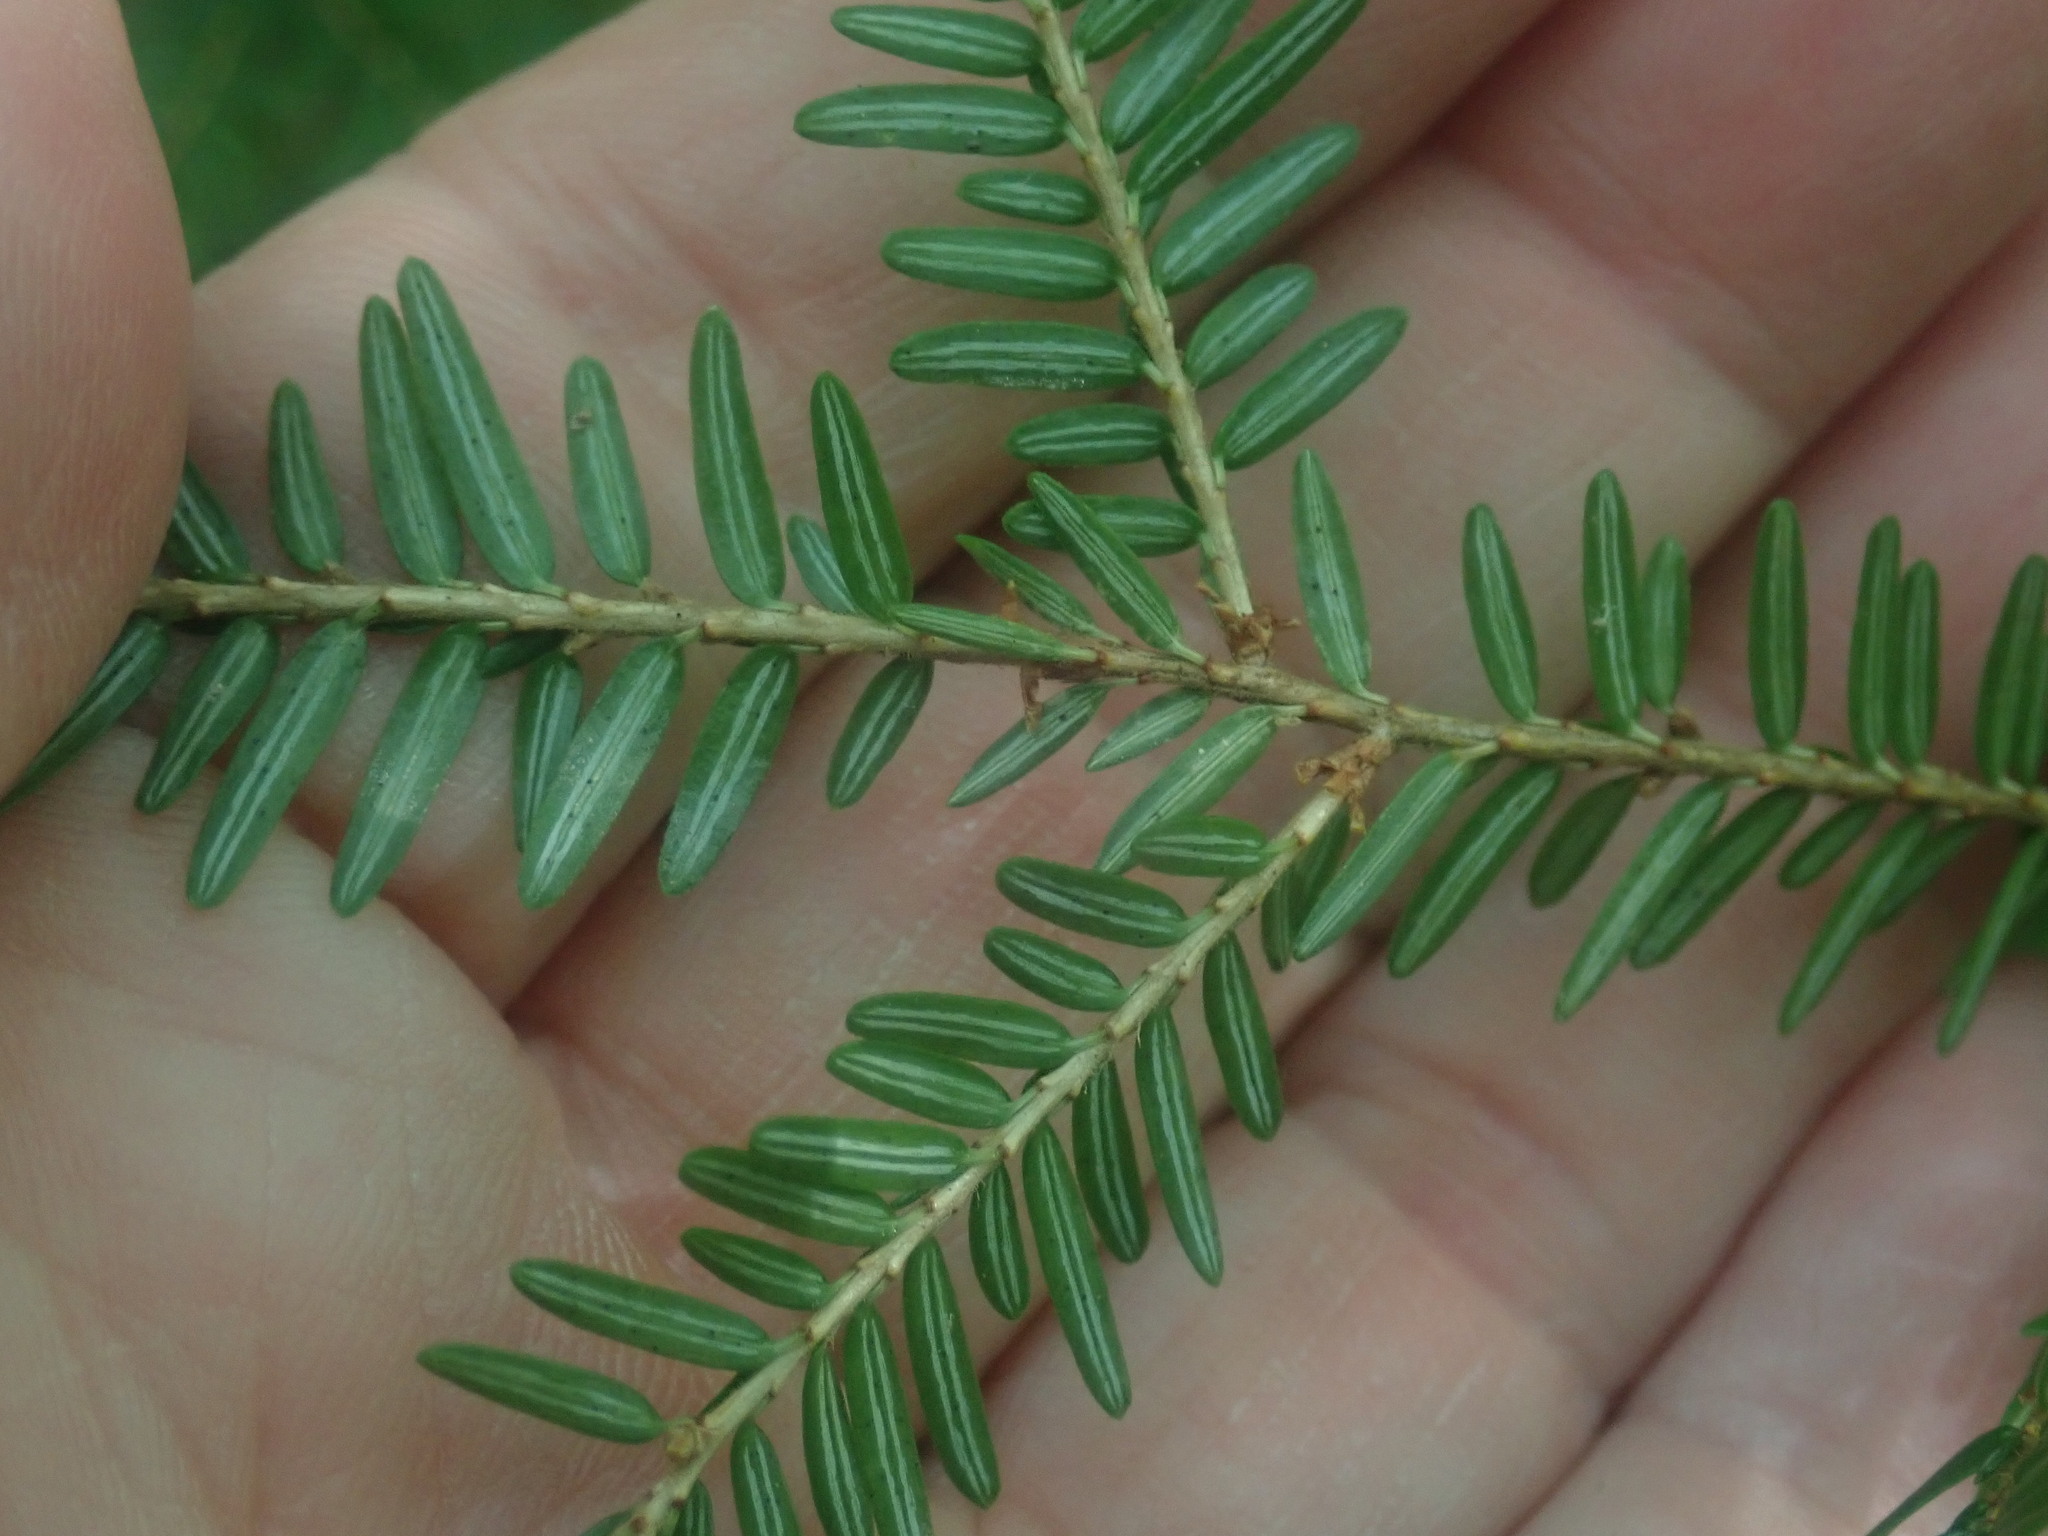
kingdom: Plantae
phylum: Tracheophyta
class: Pinopsida
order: Pinales
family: Pinaceae
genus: Tsuga
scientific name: Tsuga canadensis
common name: Eastern hemlock
